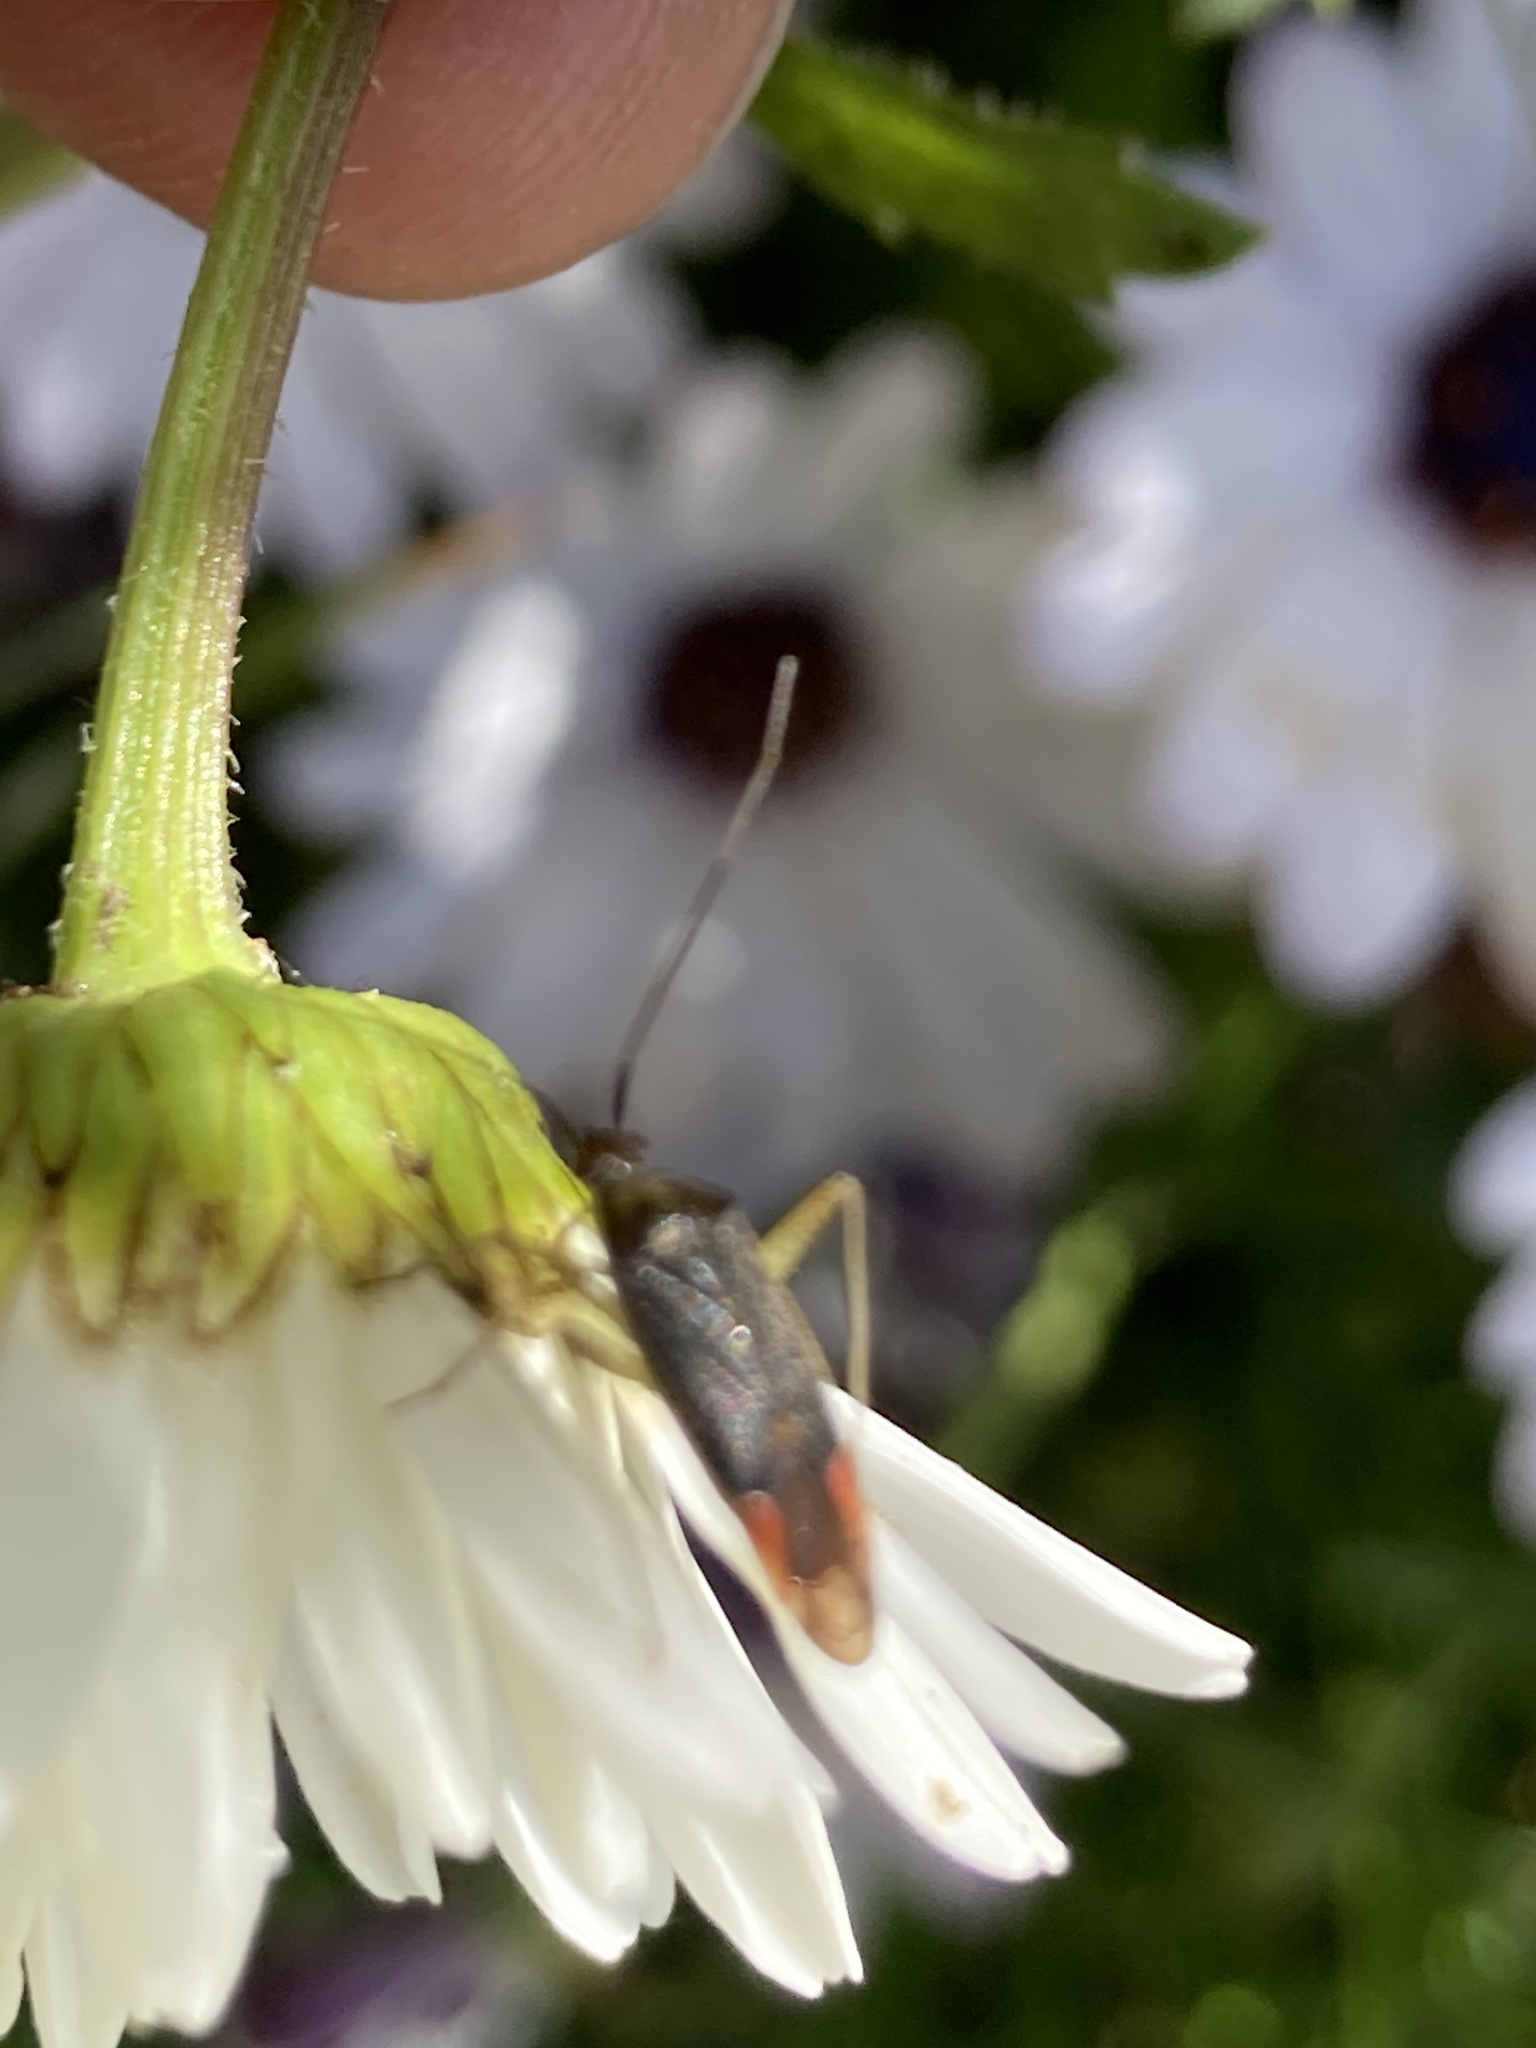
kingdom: Animalia
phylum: Arthropoda
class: Insecta
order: Hemiptera
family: Miridae
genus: Closterotomus
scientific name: Closterotomus trivialis
